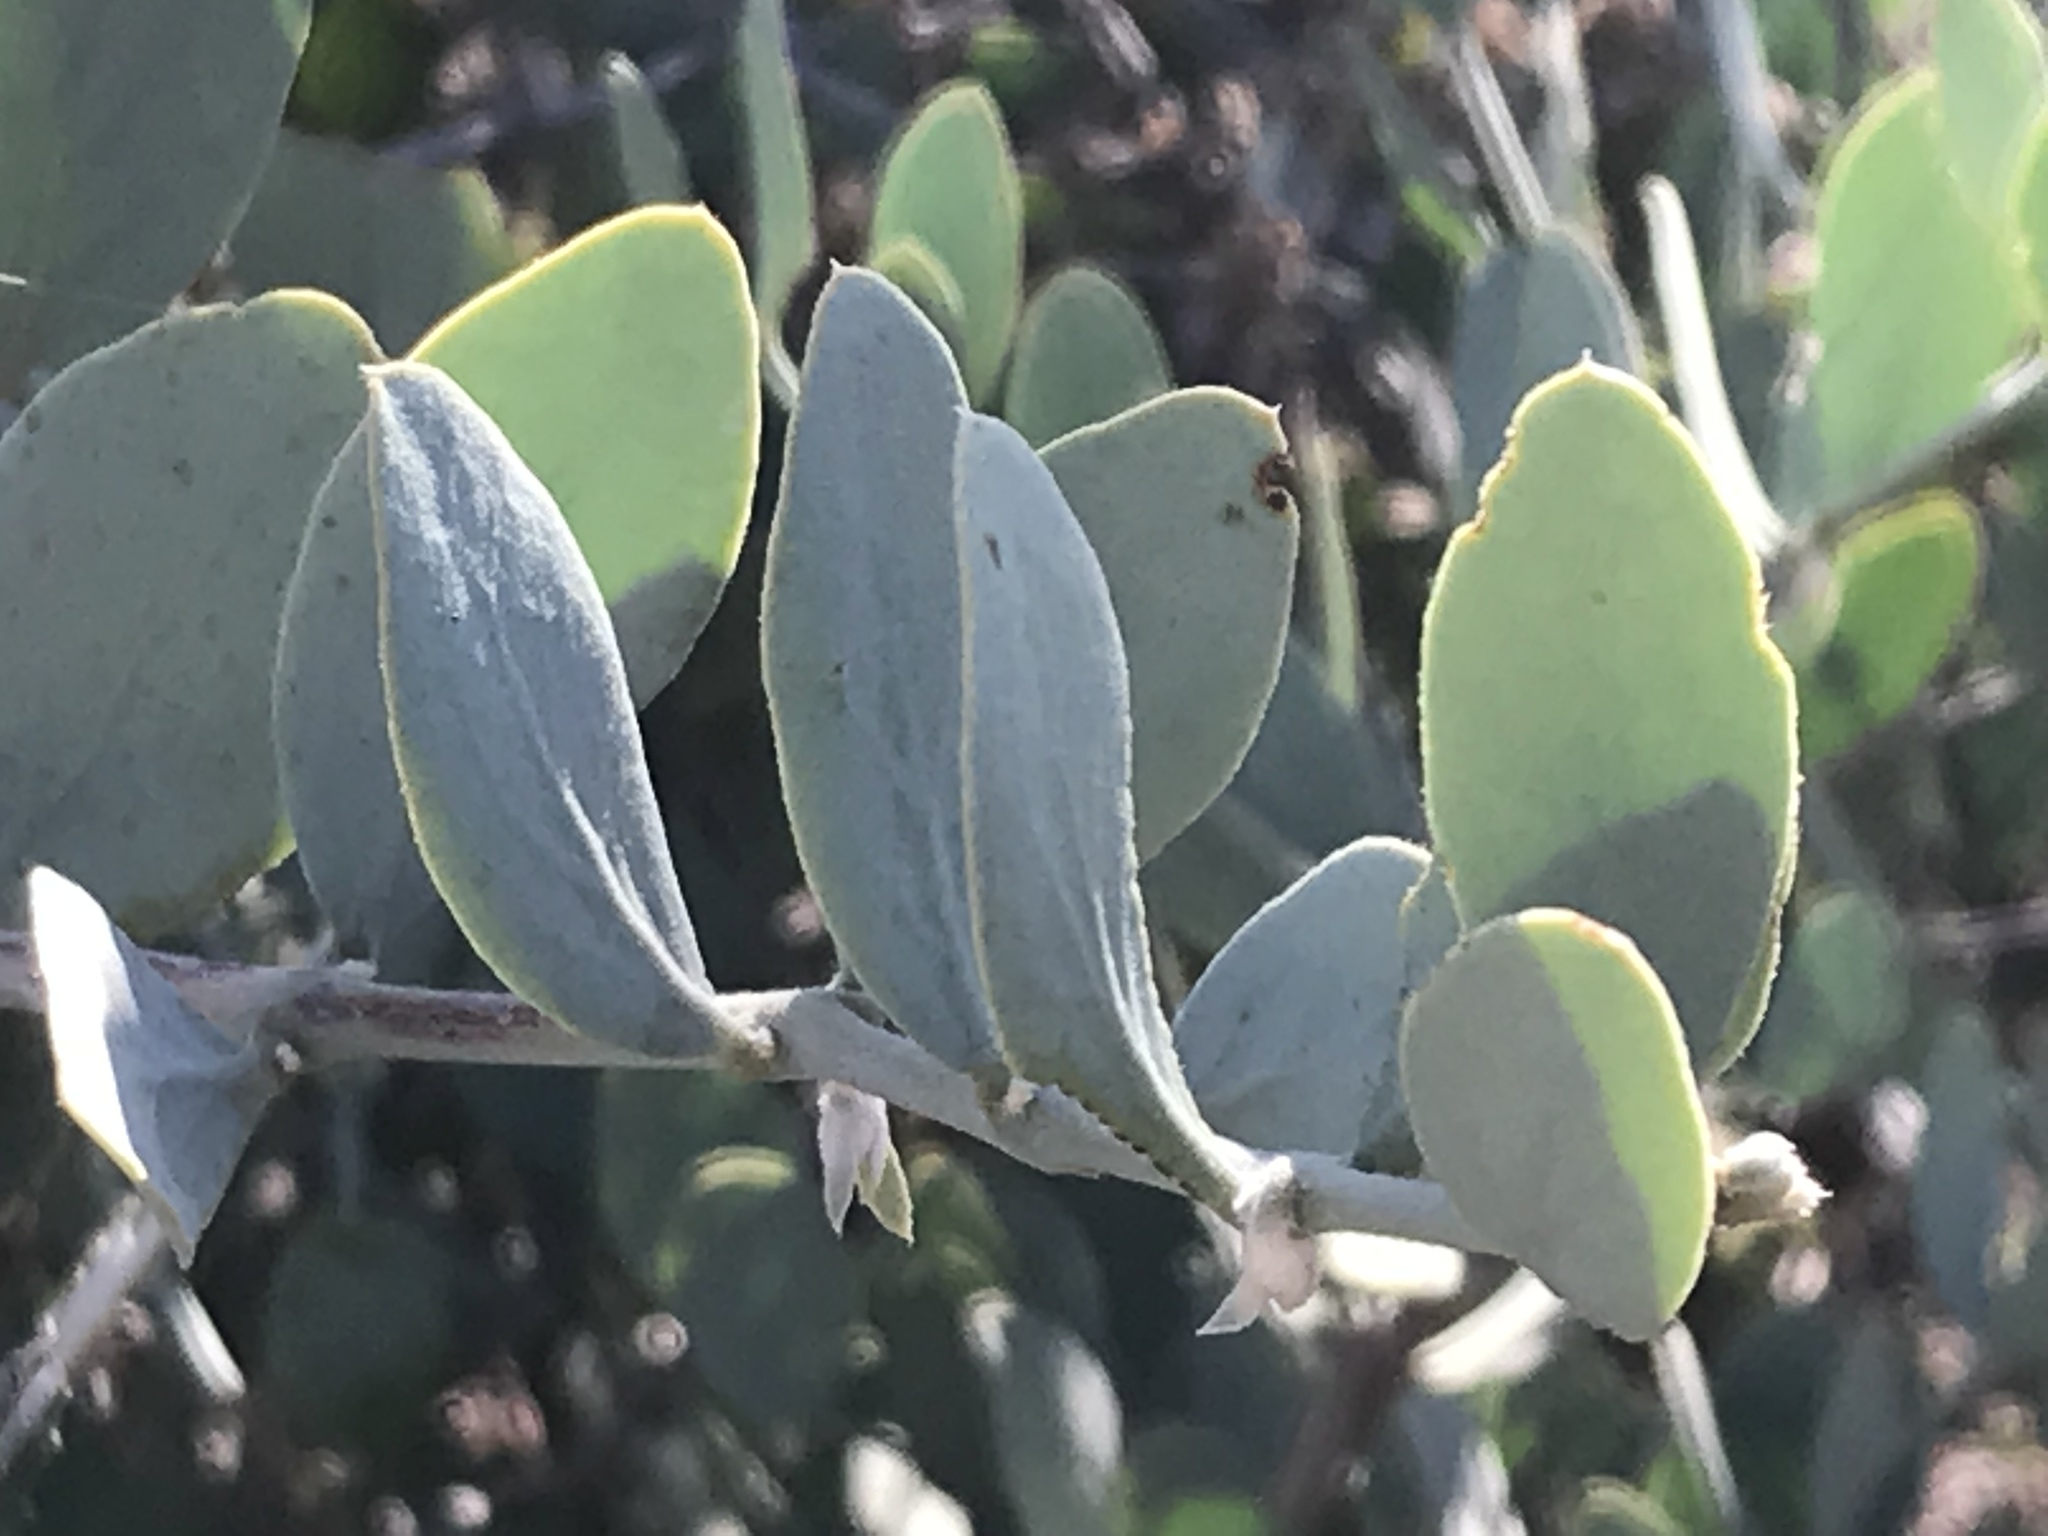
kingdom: Plantae
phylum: Tracheophyta
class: Magnoliopsida
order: Caryophyllales
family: Simmondsiaceae
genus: Simmondsia
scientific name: Simmondsia chinensis
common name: Jojoba
